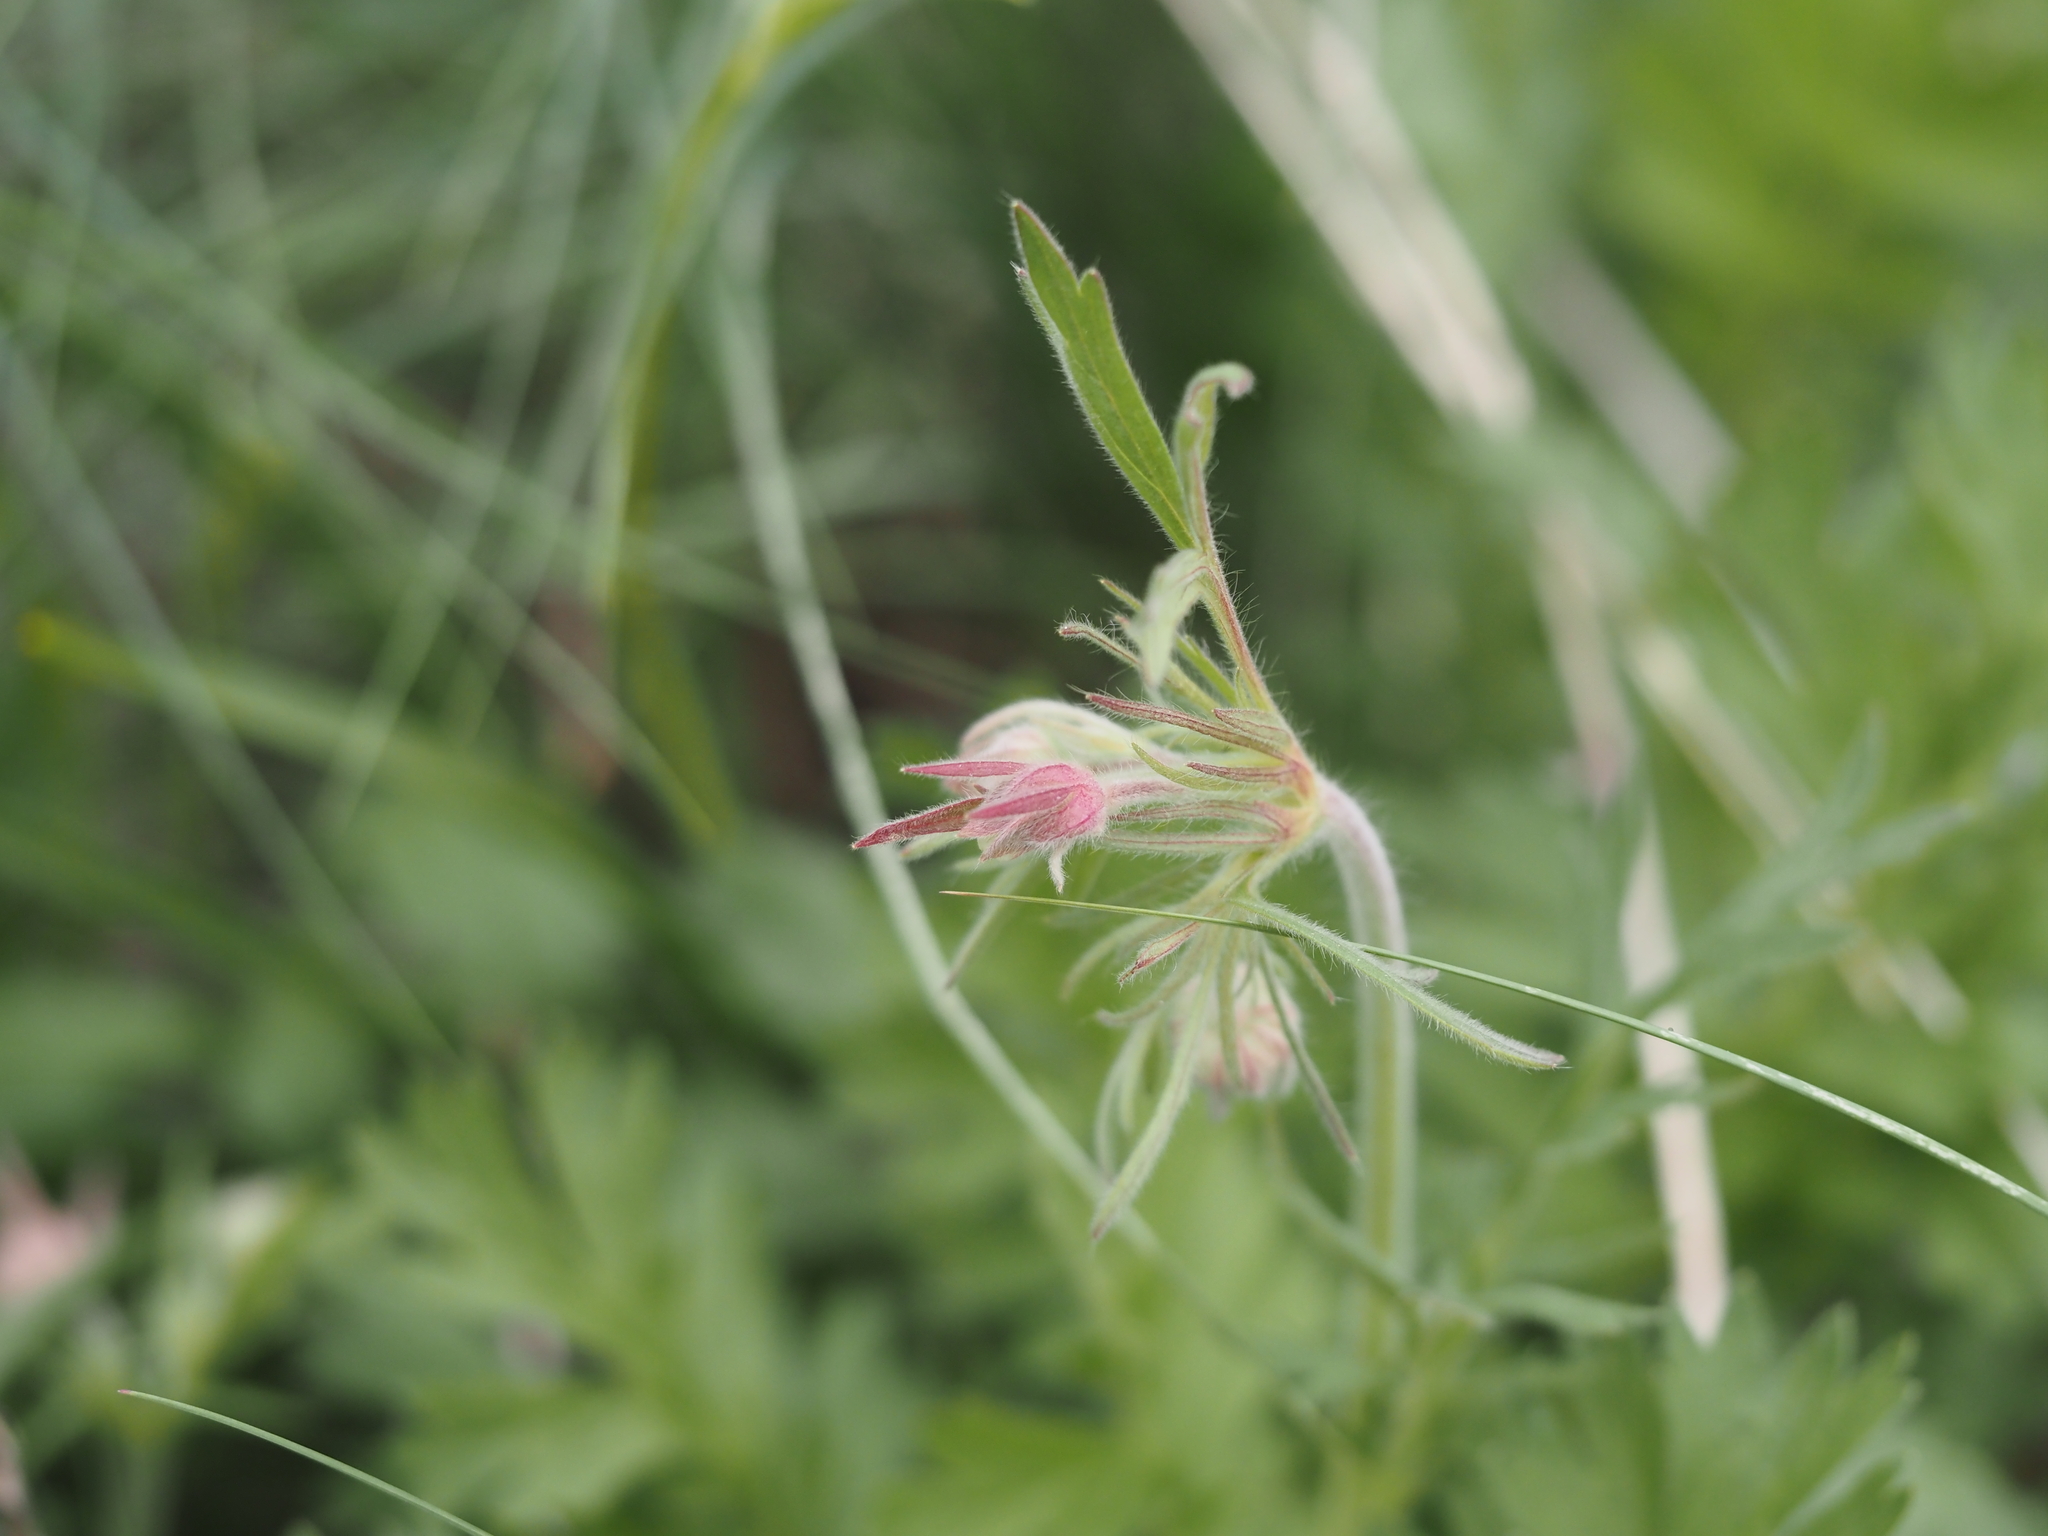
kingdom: Plantae
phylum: Tracheophyta
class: Magnoliopsida
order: Rosales
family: Rosaceae
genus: Geum
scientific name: Geum triflorum
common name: Old man's whiskers
